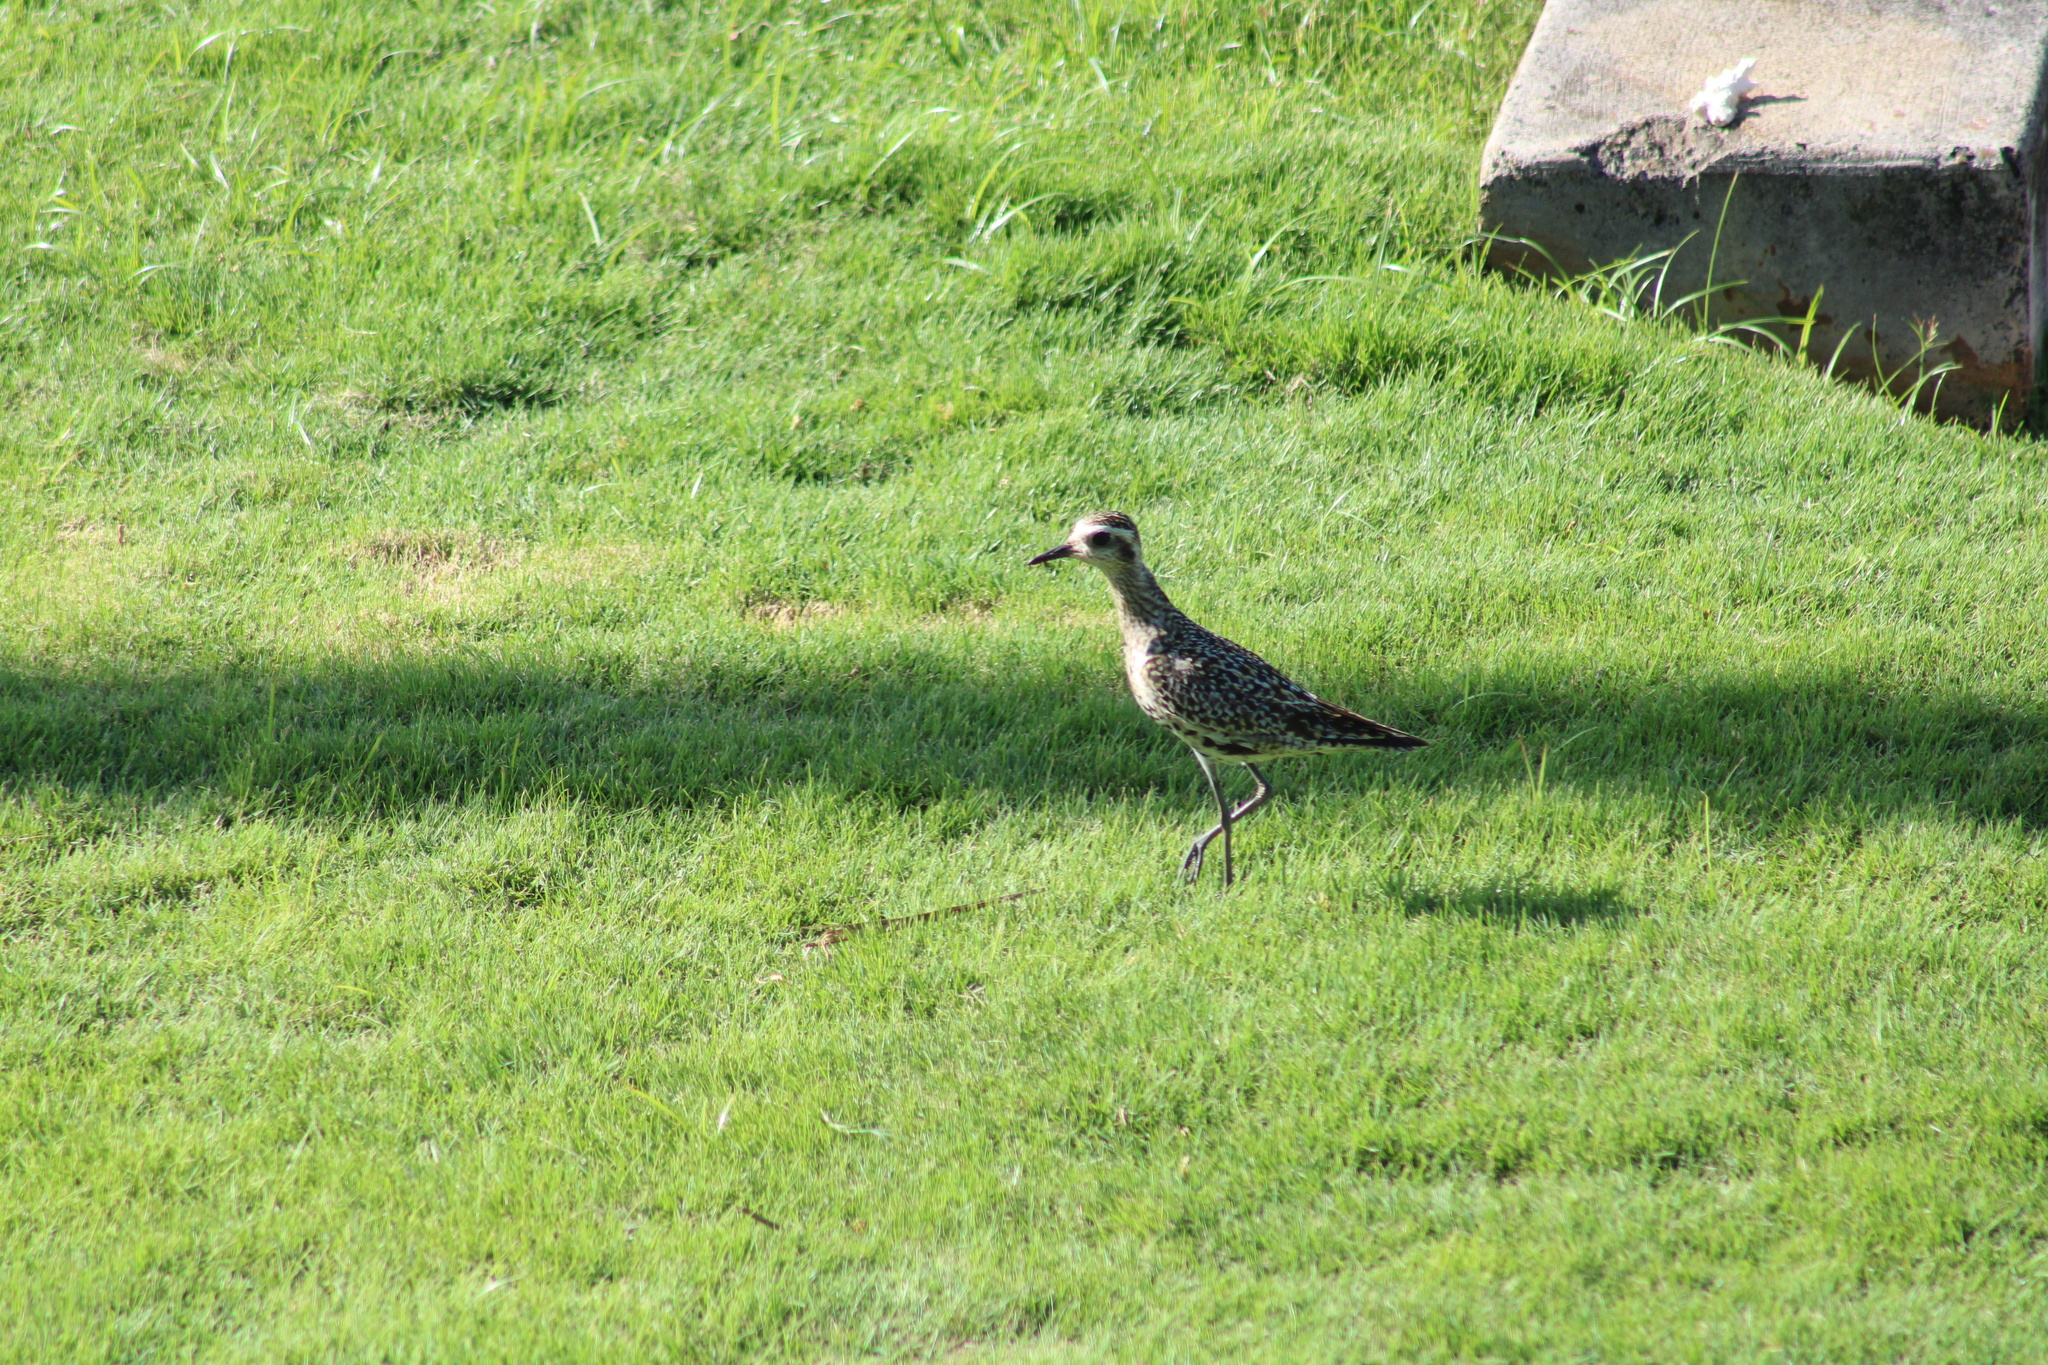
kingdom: Animalia
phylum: Chordata
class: Aves
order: Charadriiformes
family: Charadriidae
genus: Pluvialis
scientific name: Pluvialis fulva
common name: Pacific golden plover
